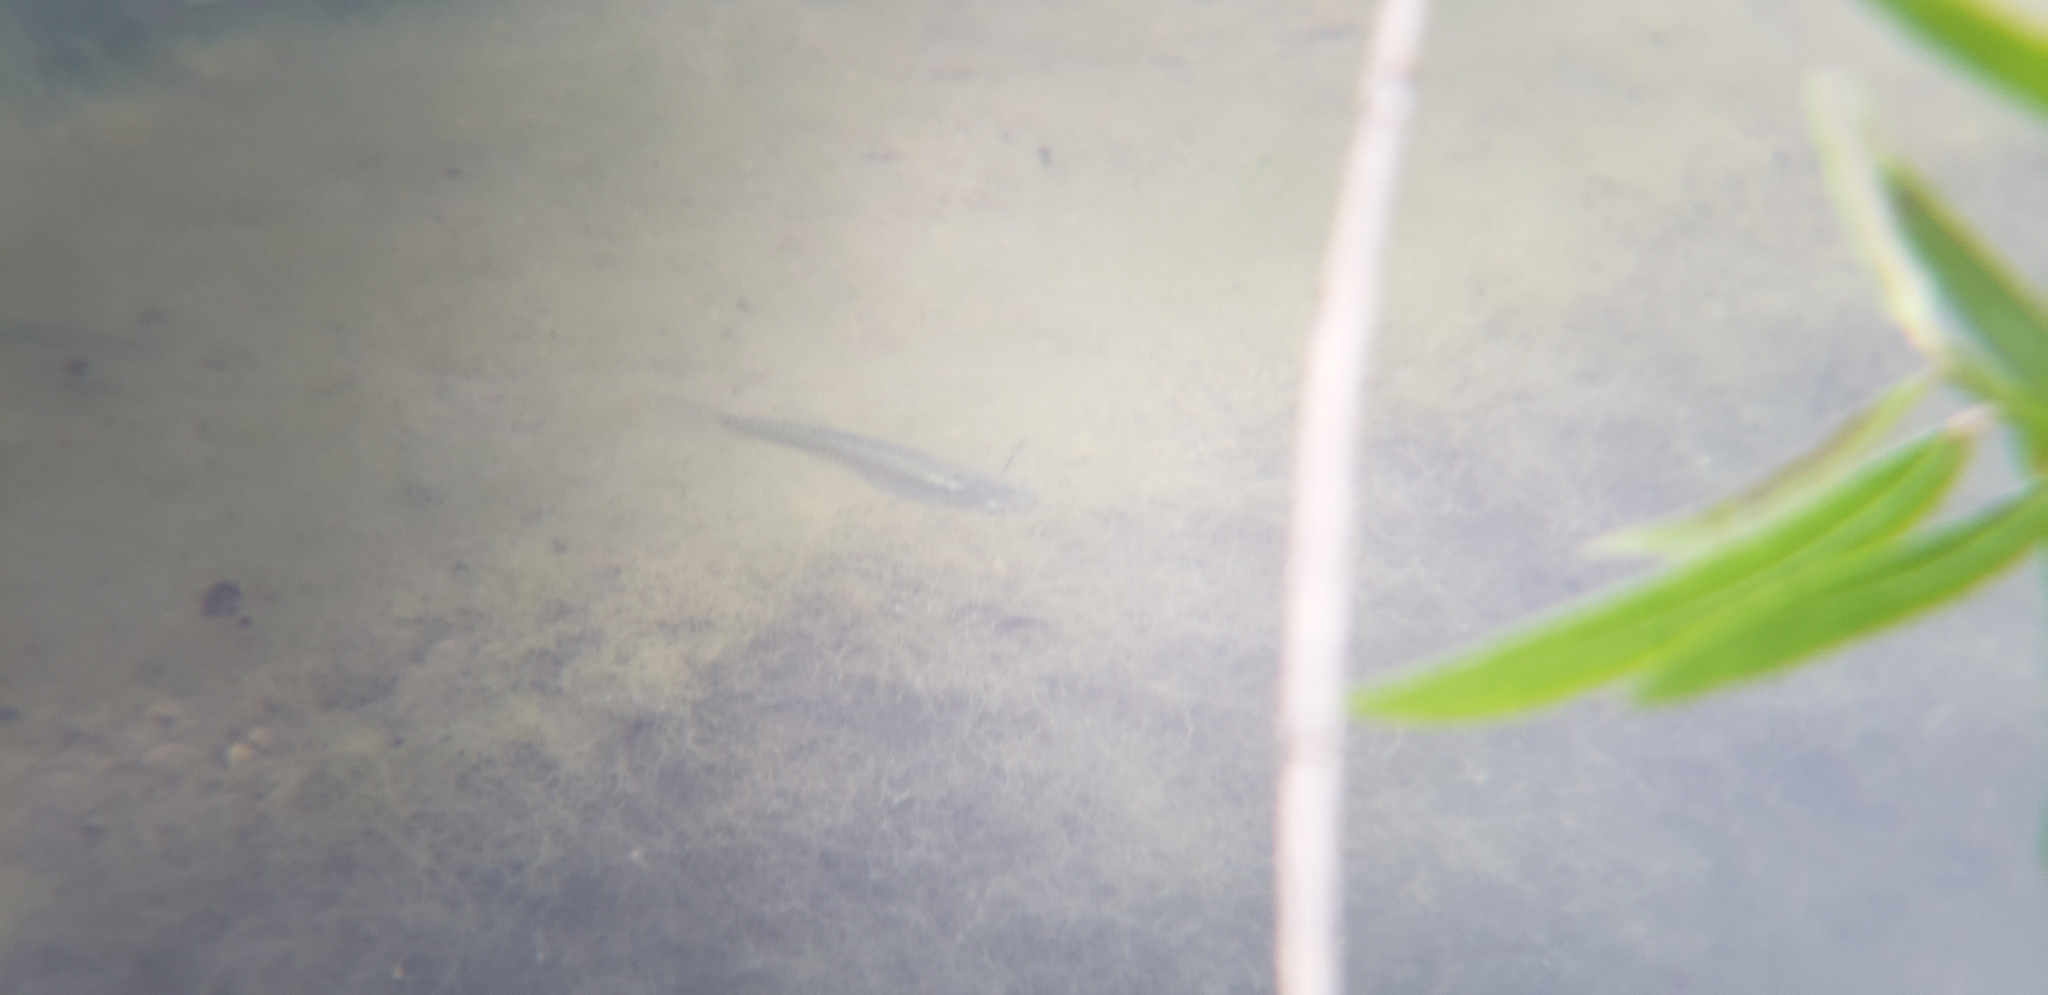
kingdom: Animalia
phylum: Chordata
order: Cyprinodontiformes
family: Poeciliidae
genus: Gambusia
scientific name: Gambusia affinis
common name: Mosquitofish
